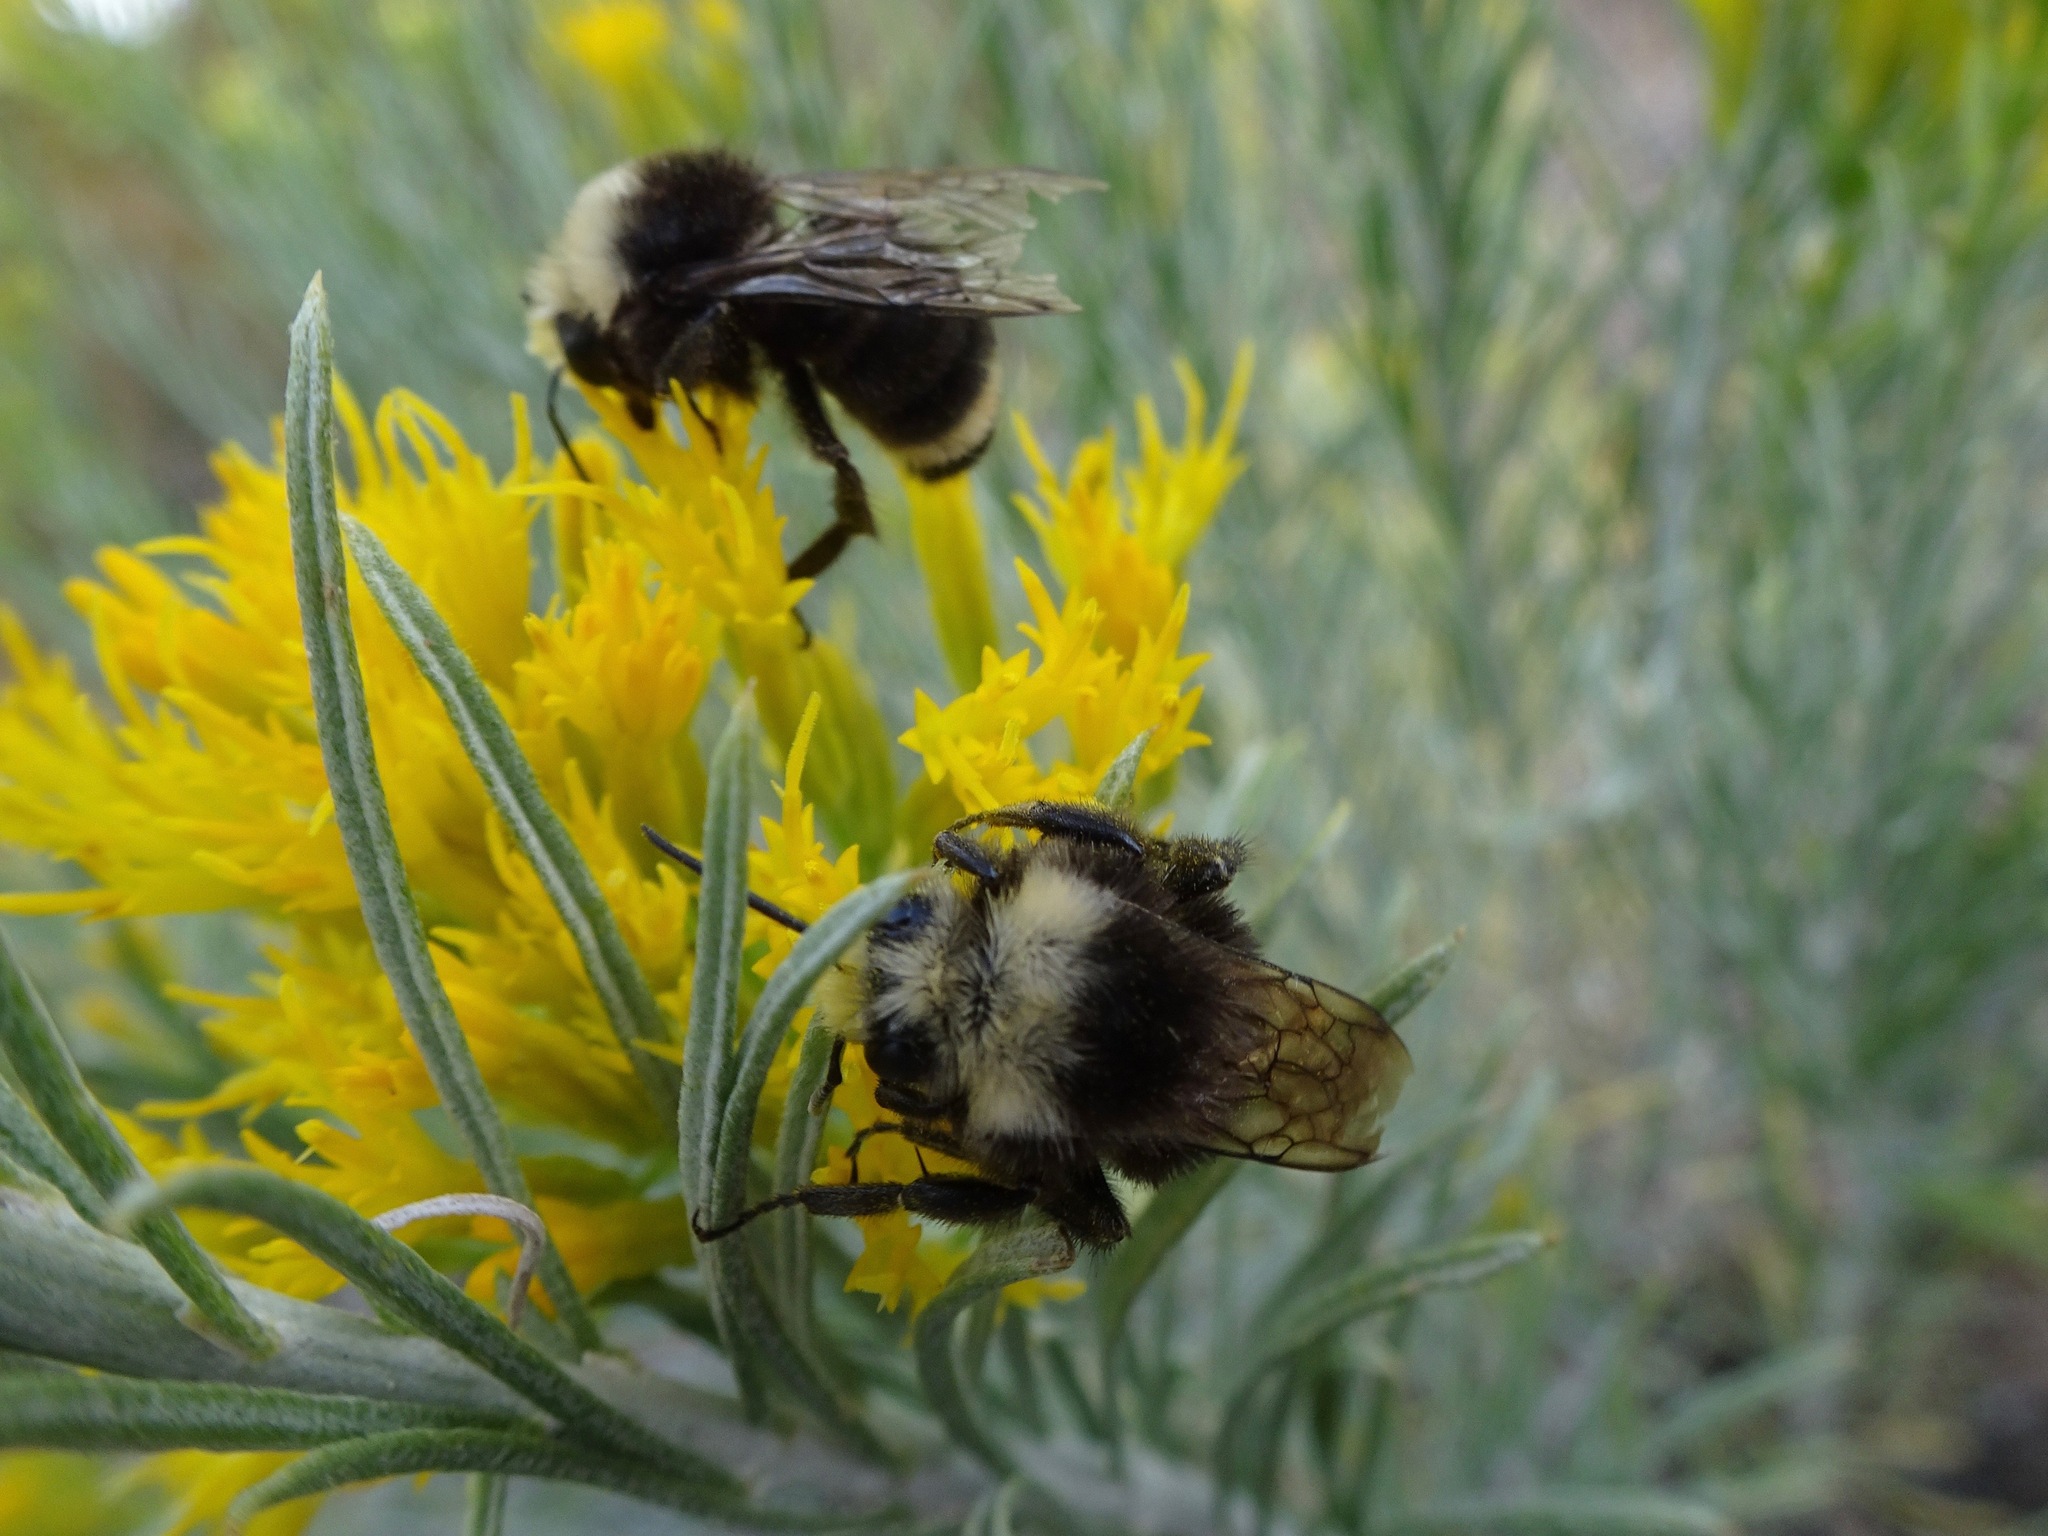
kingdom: Animalia
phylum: Arthropoda
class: Insecta
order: Hymenoptera
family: Apidae
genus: Bombus
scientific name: Bombus vosnesenskii
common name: Vosnesensky bumble bee
